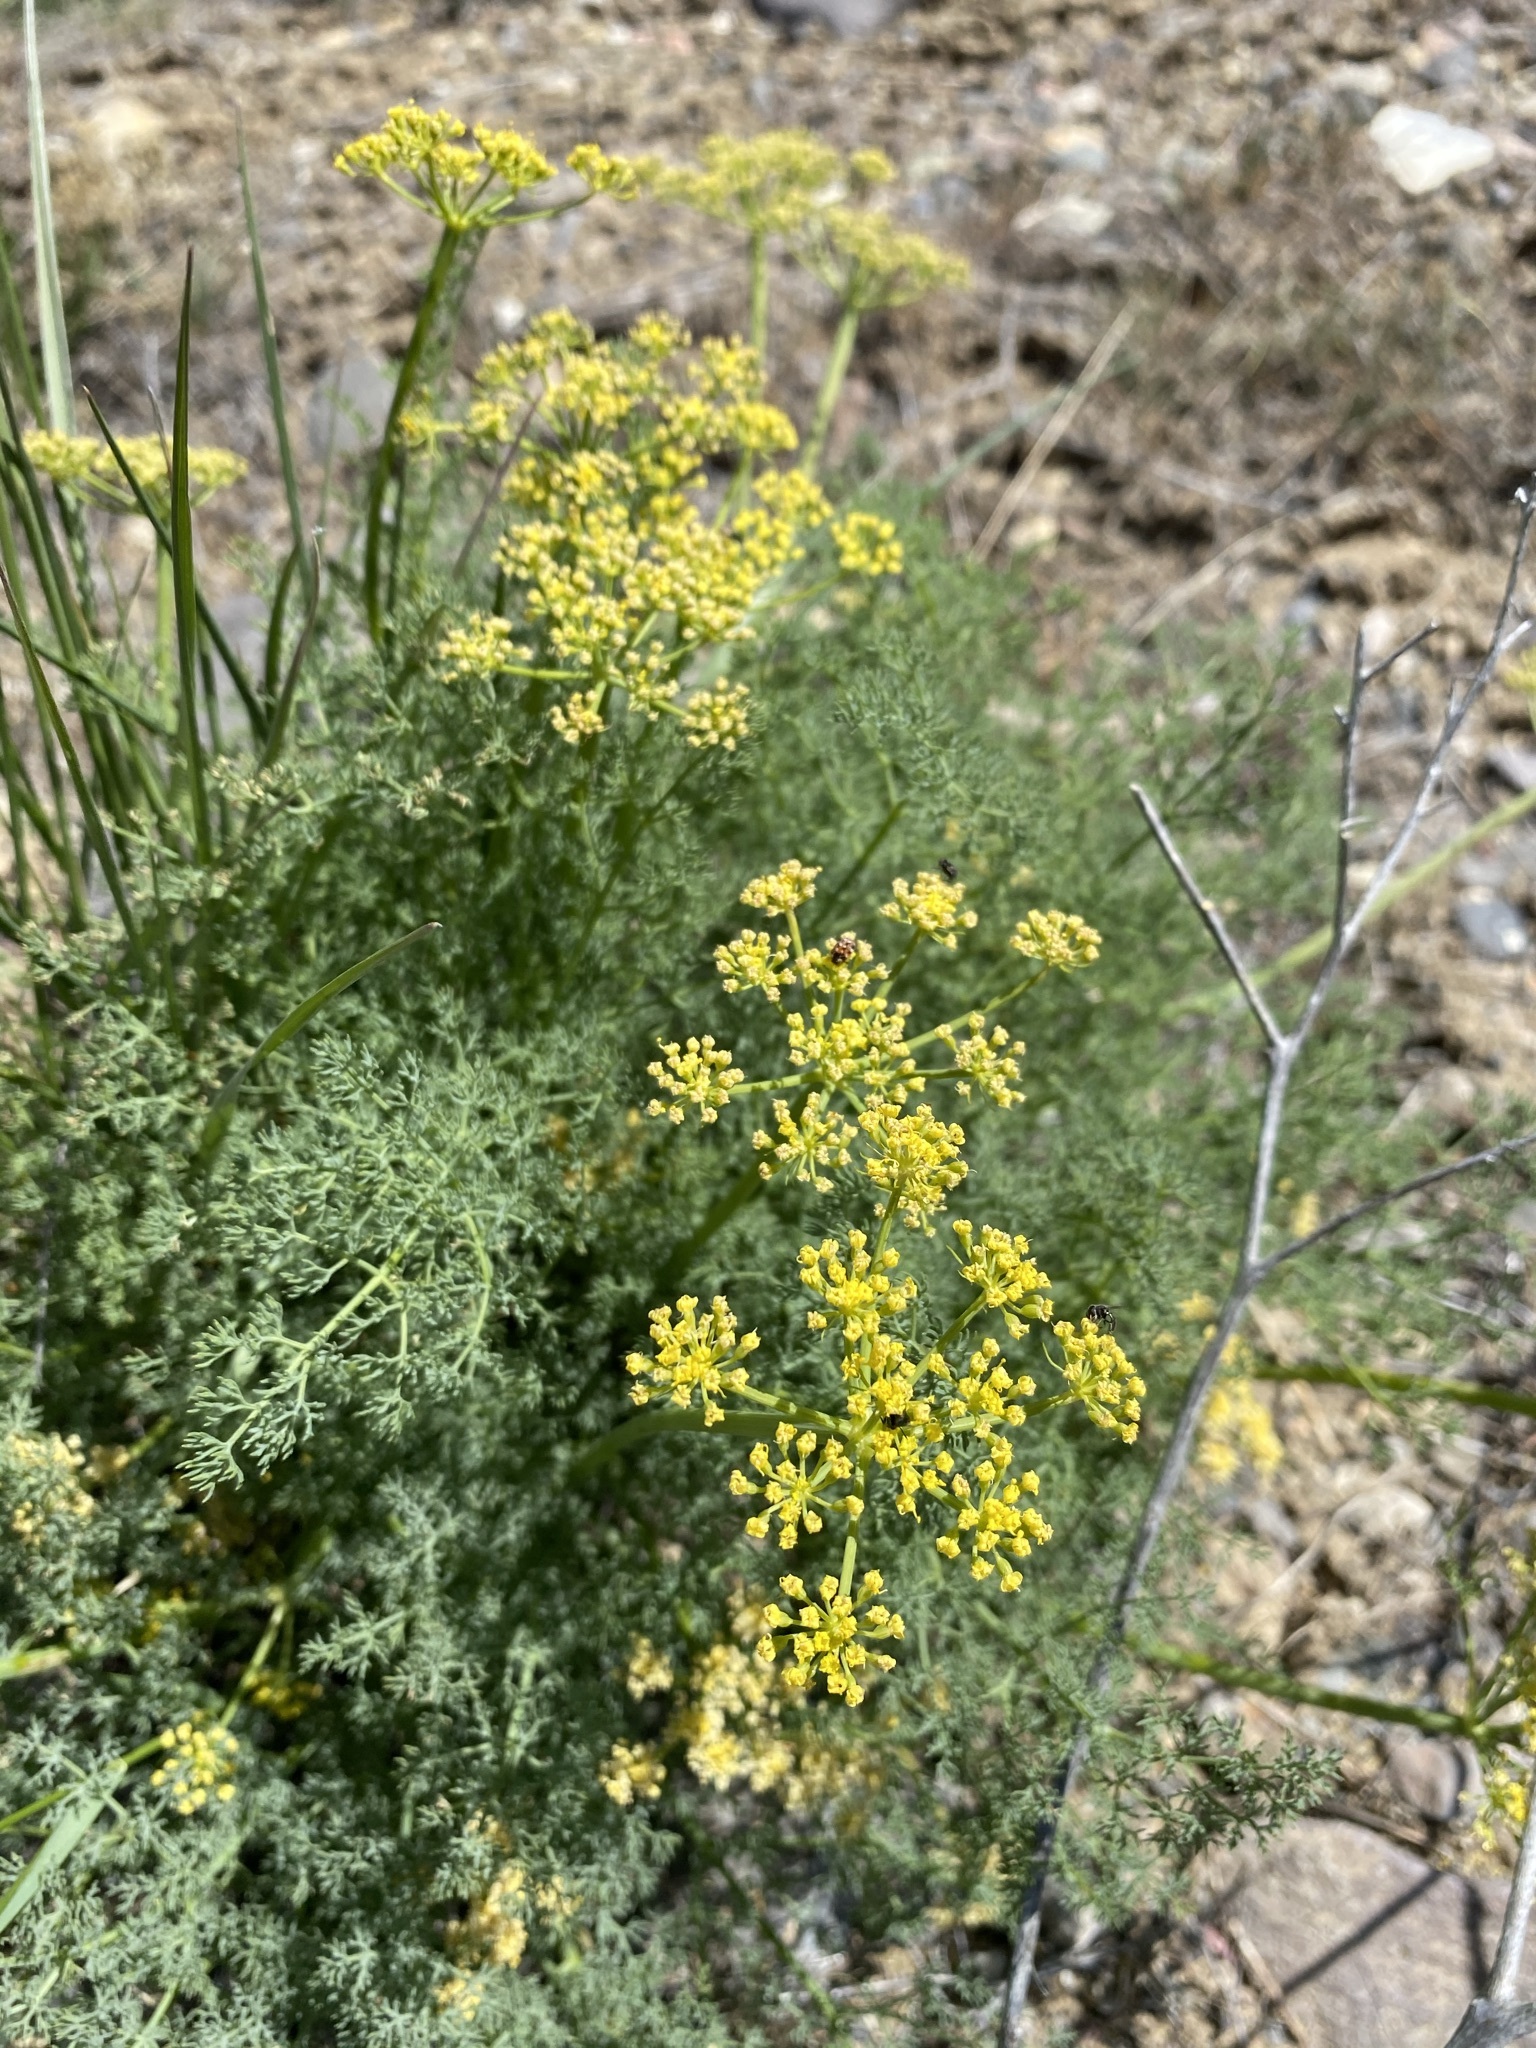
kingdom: Plantae
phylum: Tracheophyta
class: Magnoliopsida
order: Apiales
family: Apiaceae
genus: Lomatium
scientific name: Lomatium papilioniferum
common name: Butterfly lomatium
